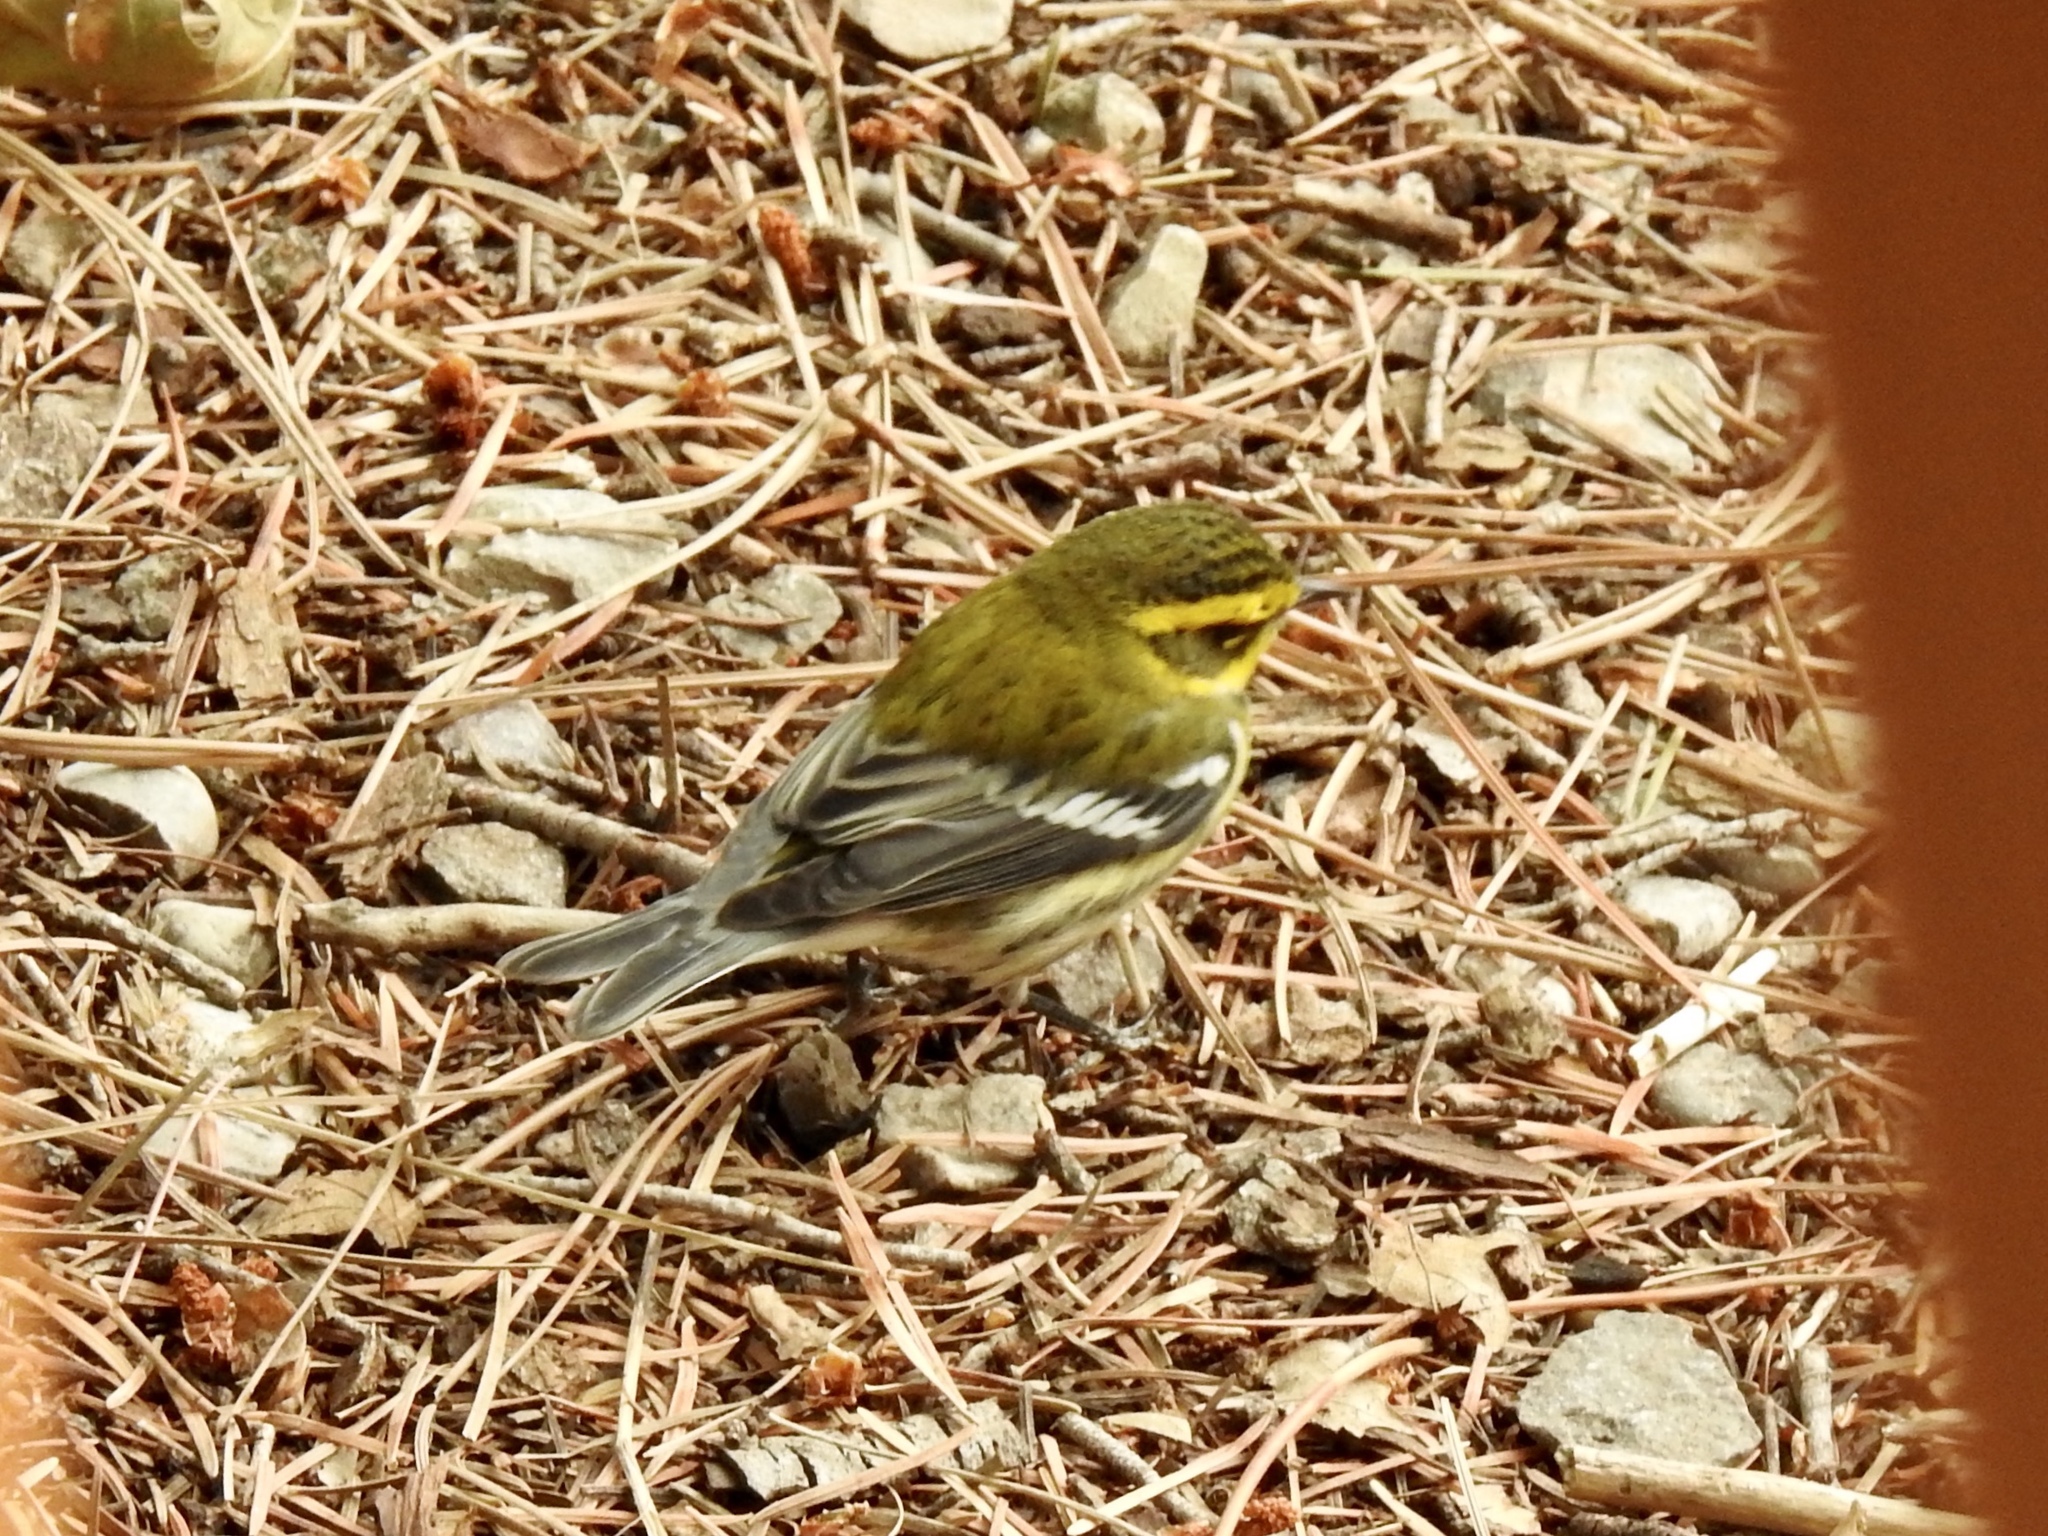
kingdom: Animalia
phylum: Chordata
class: Aves
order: Passeriformes
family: Parulidae
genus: Setophaga
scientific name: Setophaga townsendi
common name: Townsend's warbler
